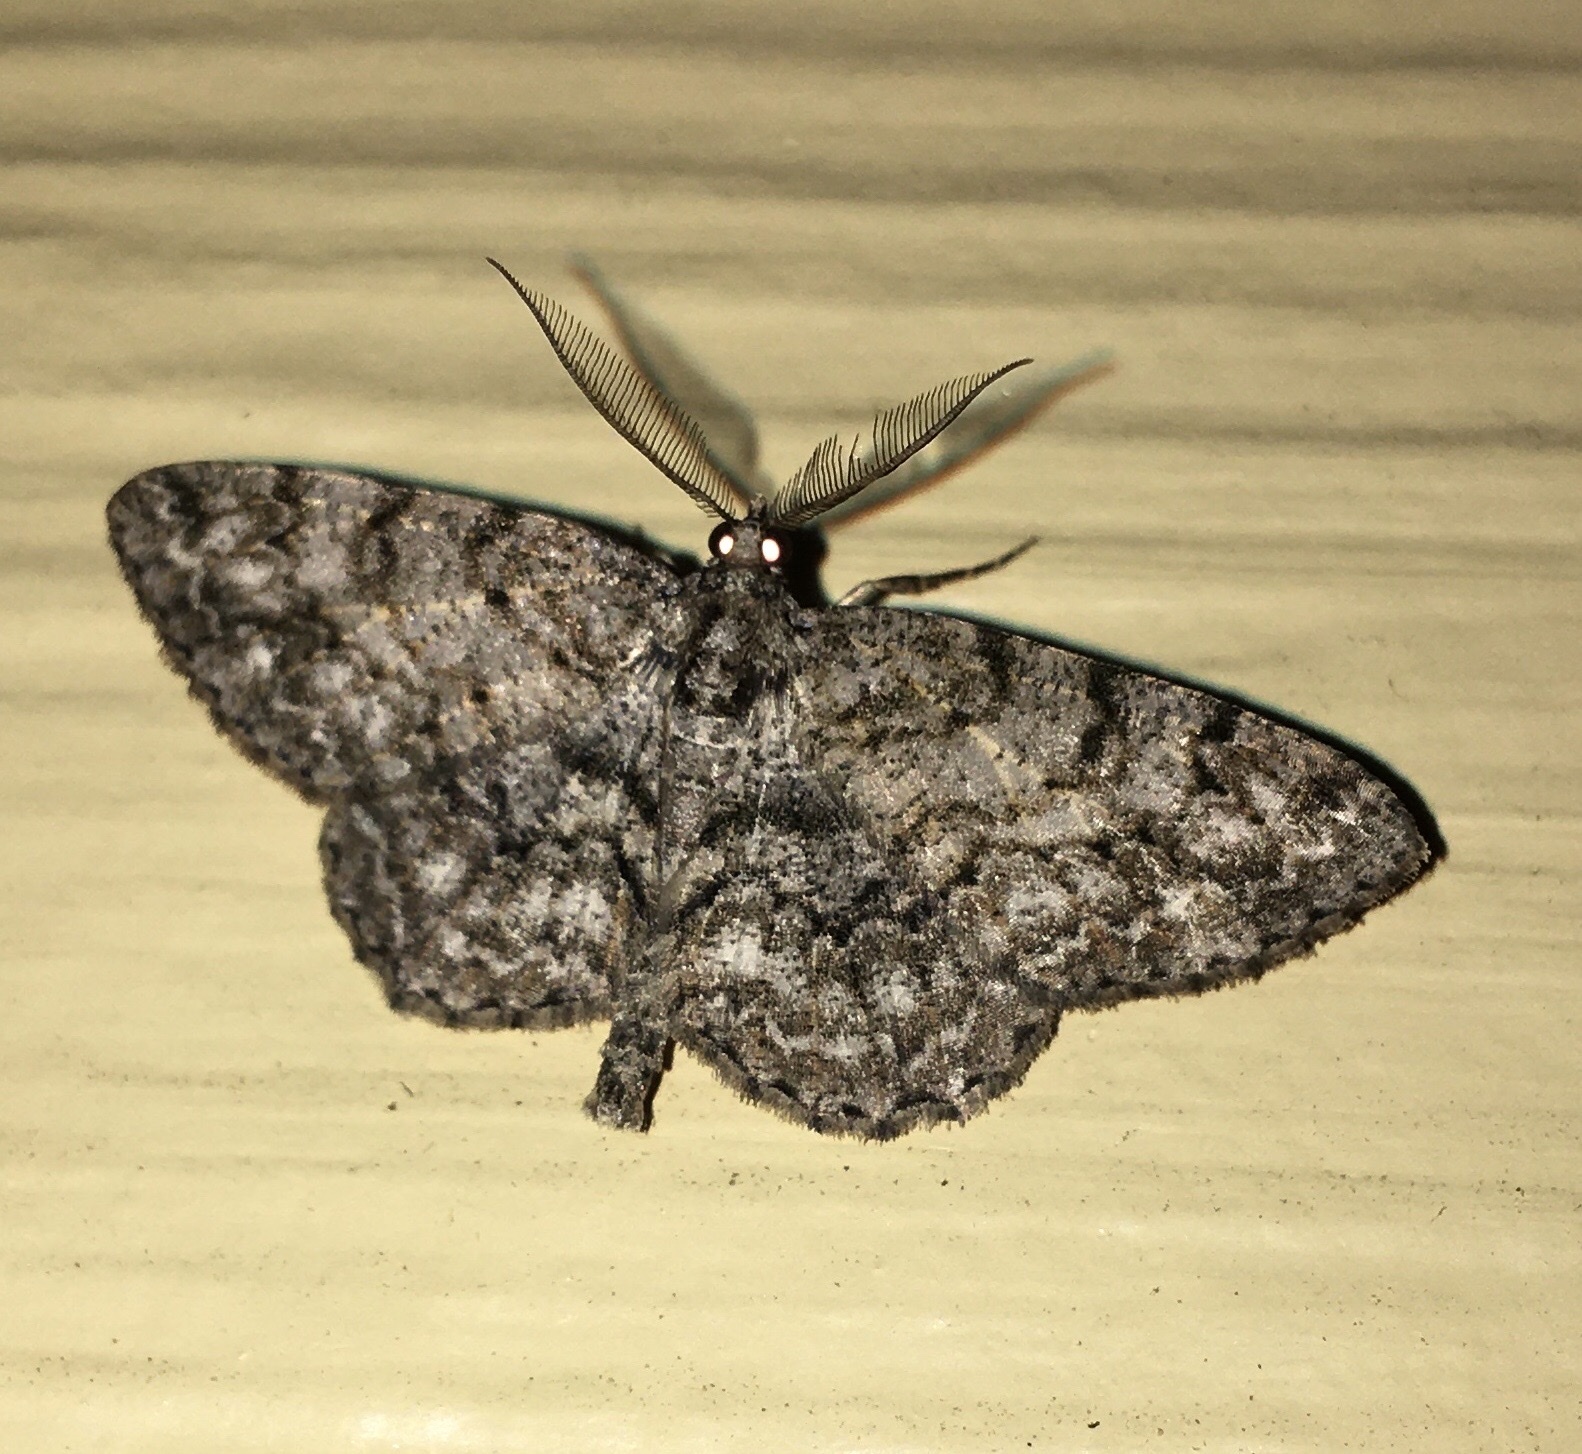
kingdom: Animalia
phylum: Arthropoda
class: Insecta
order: Lepidoptera
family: Geometridae
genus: Protoboarmia
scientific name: Protoboarmia porcelaria
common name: Porcelain gray
